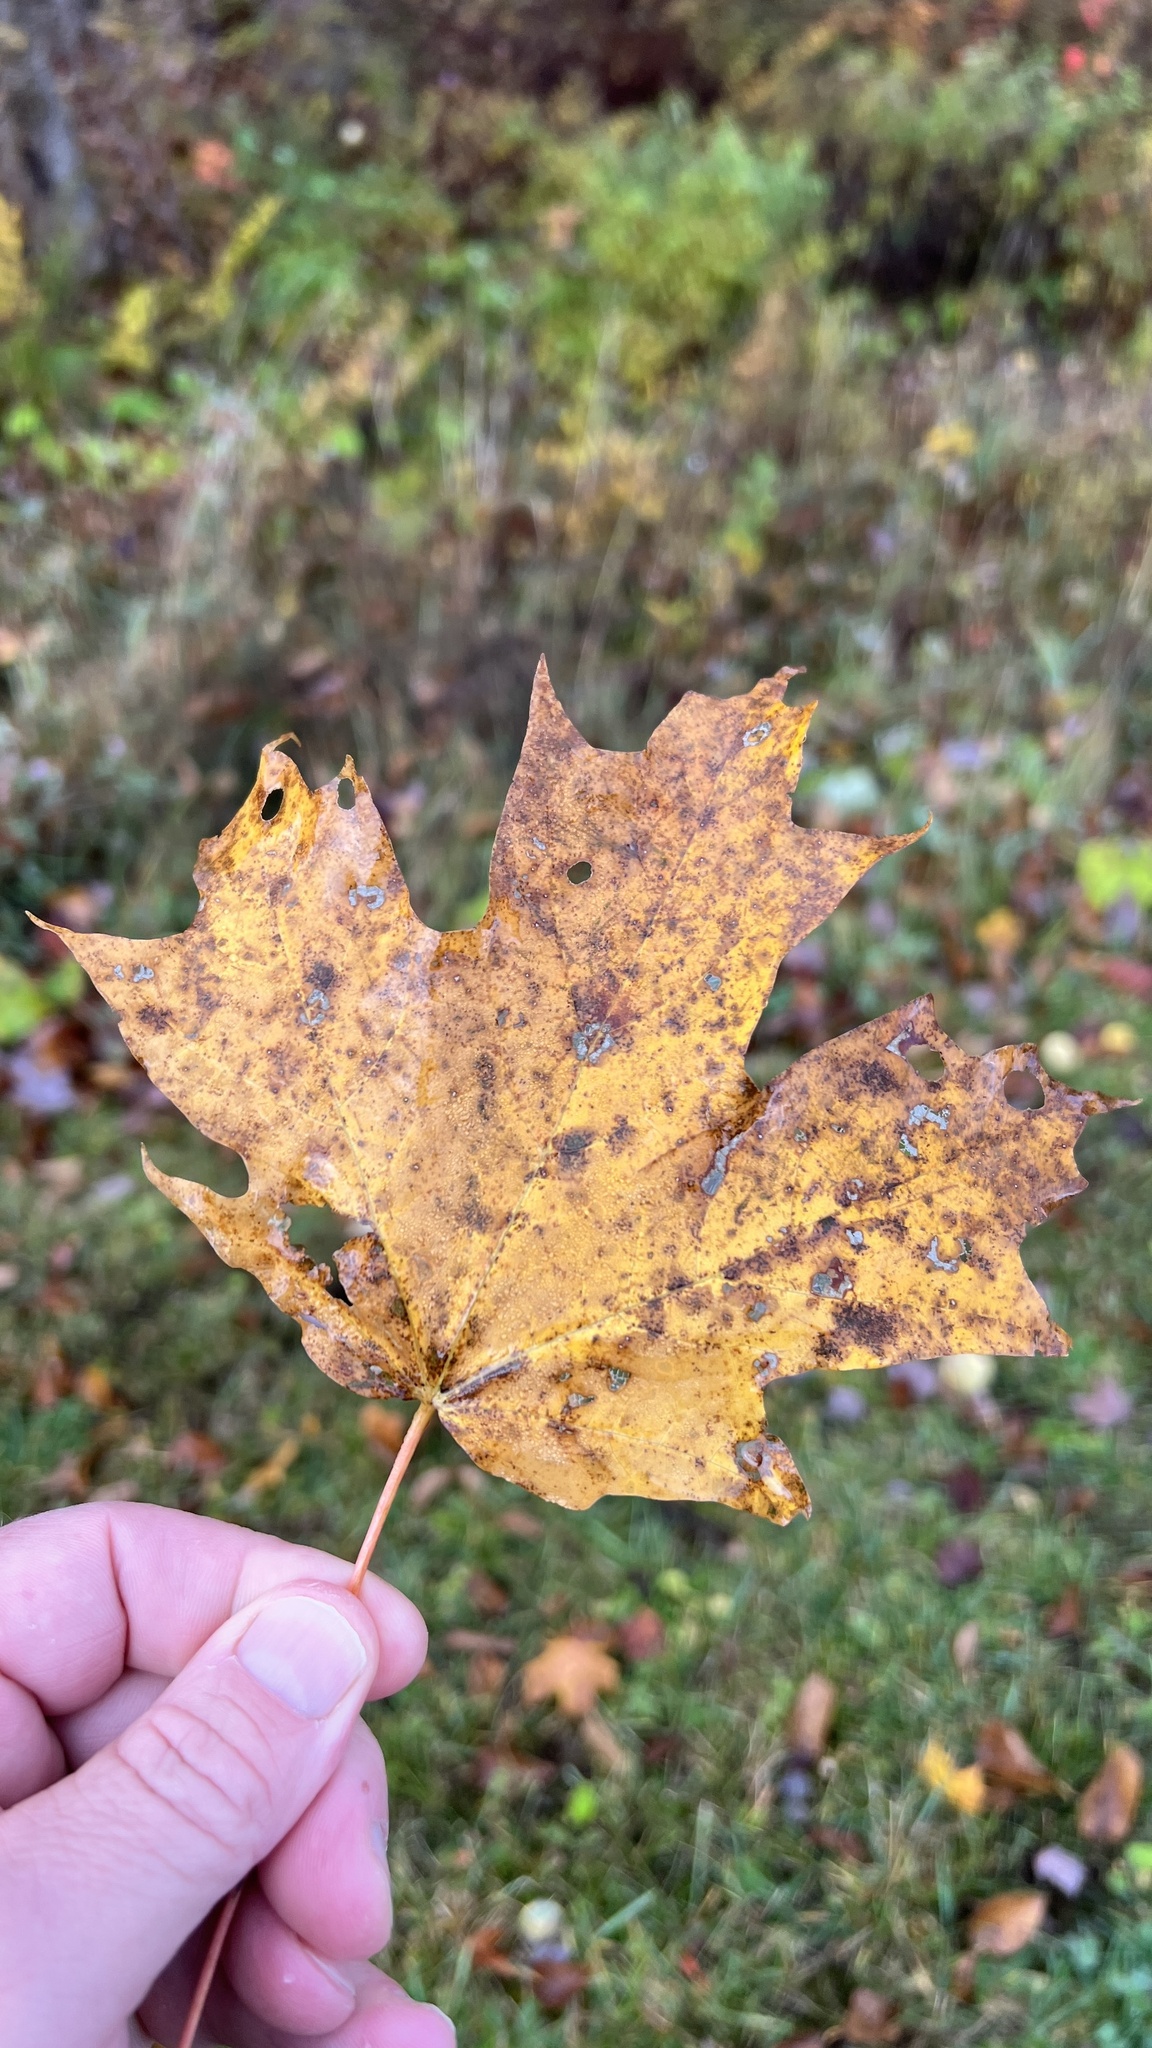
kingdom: Plantae
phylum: Tracheophyta
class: Magnoliopsida
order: Sapindales
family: Sapindaceae
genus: Acer
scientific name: Acer saccharum
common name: Sugar maple
